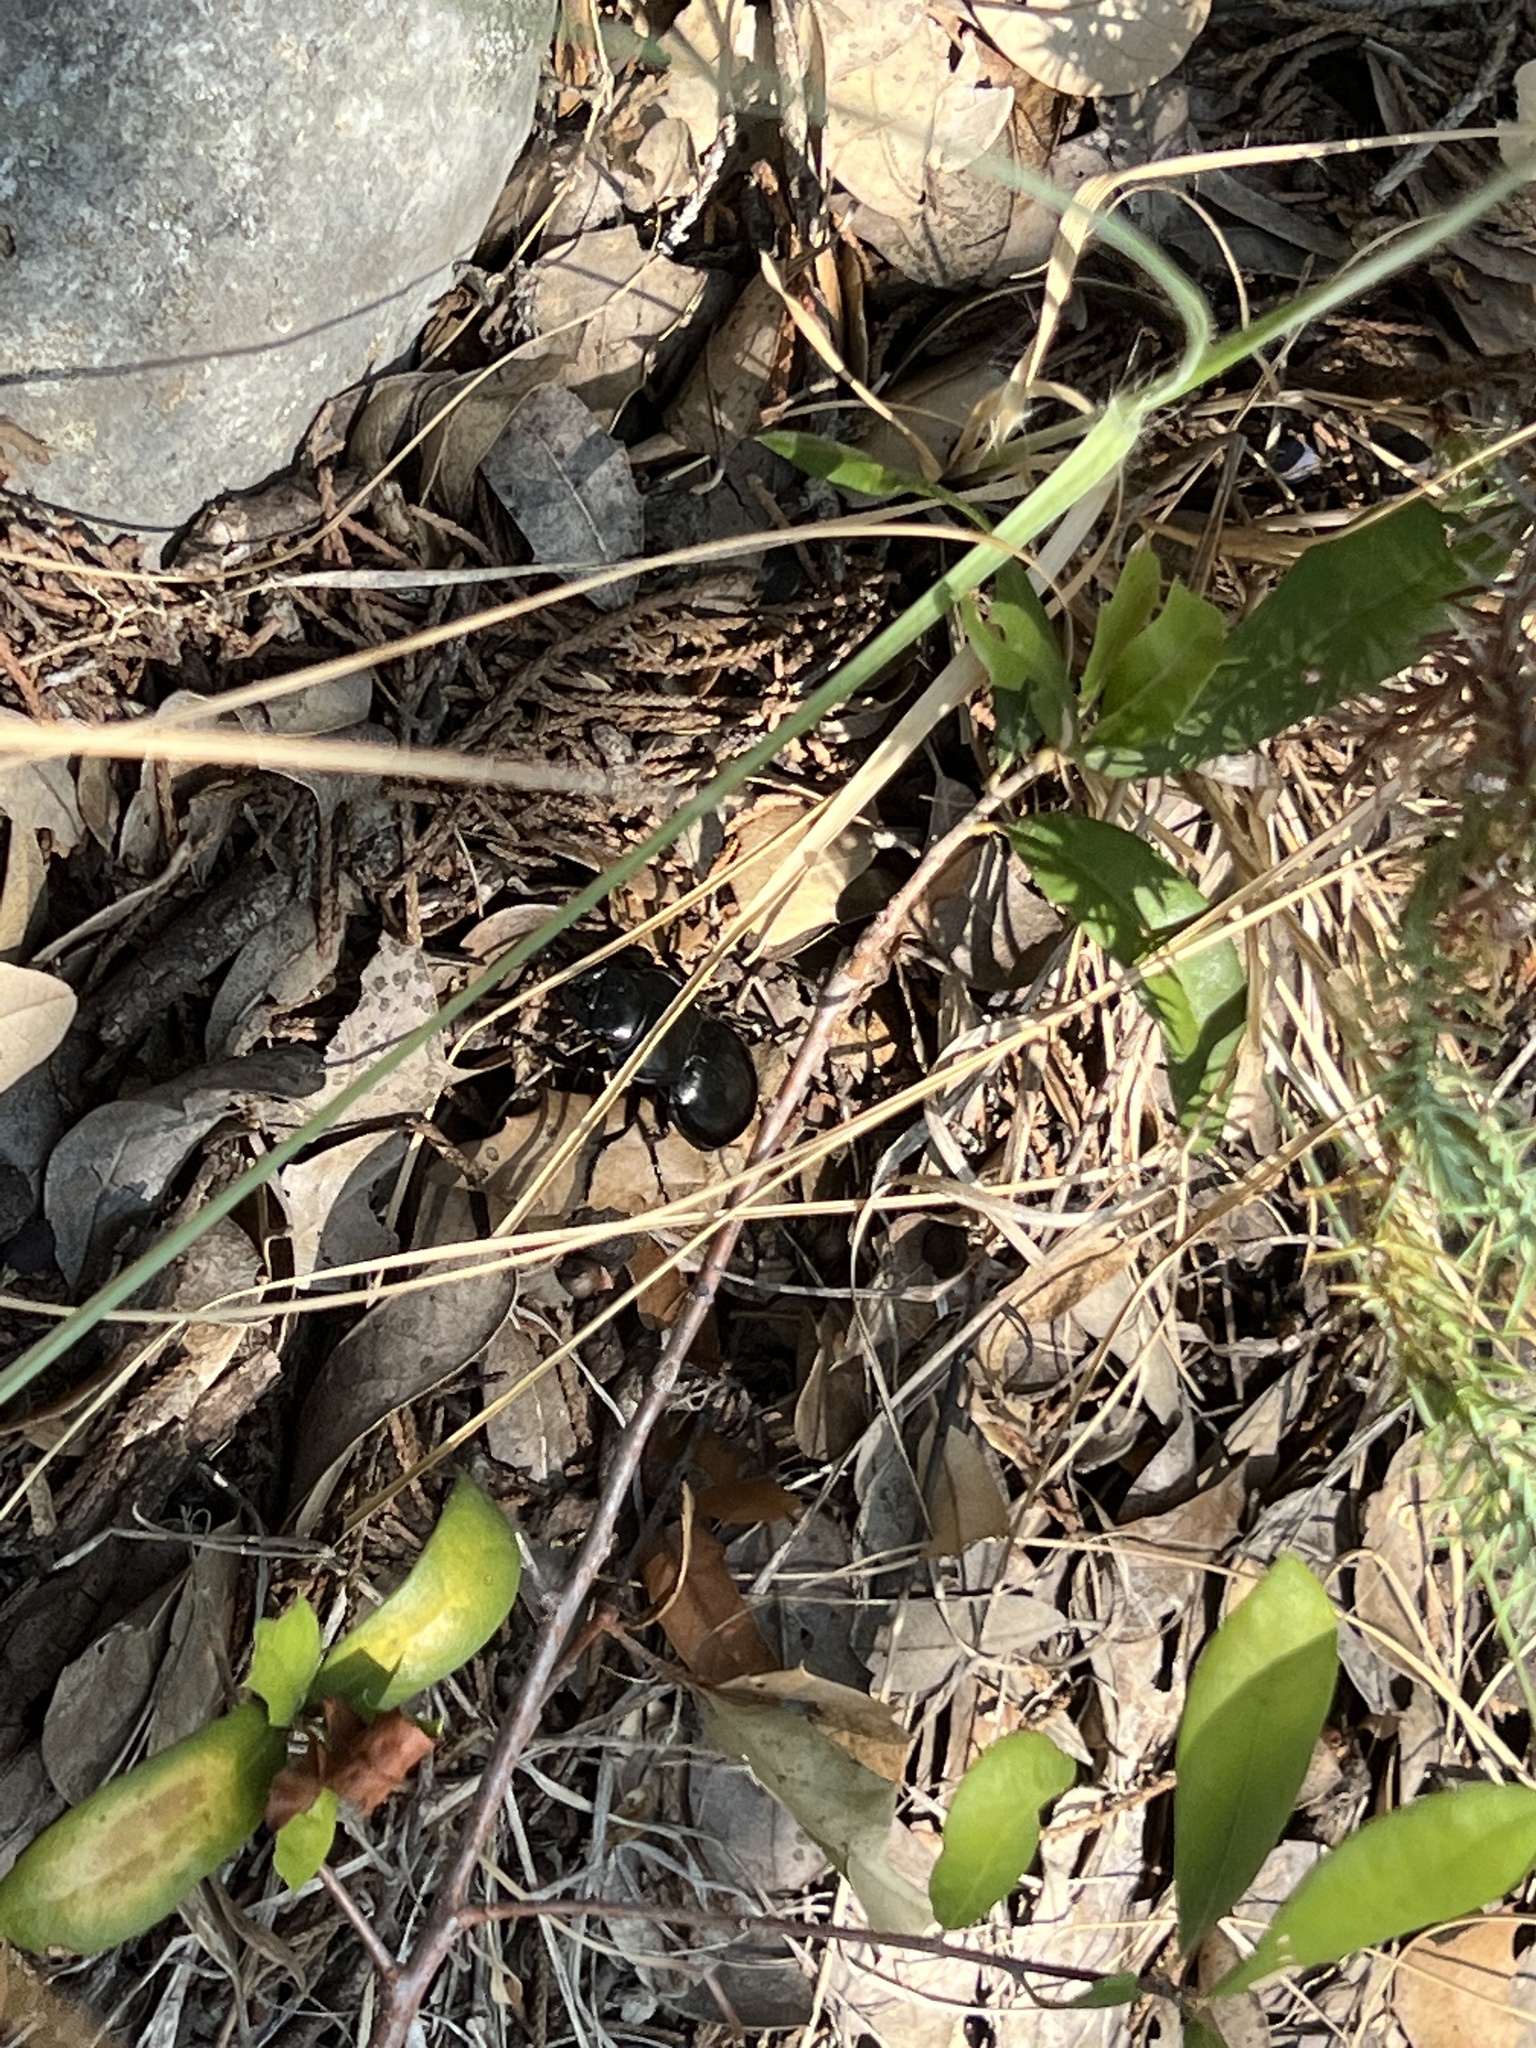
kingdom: Animalia
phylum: Arthropoda
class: Insecta
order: Coleoptera
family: Carabidae
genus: Pasimachus
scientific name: Pasimachus californicus
